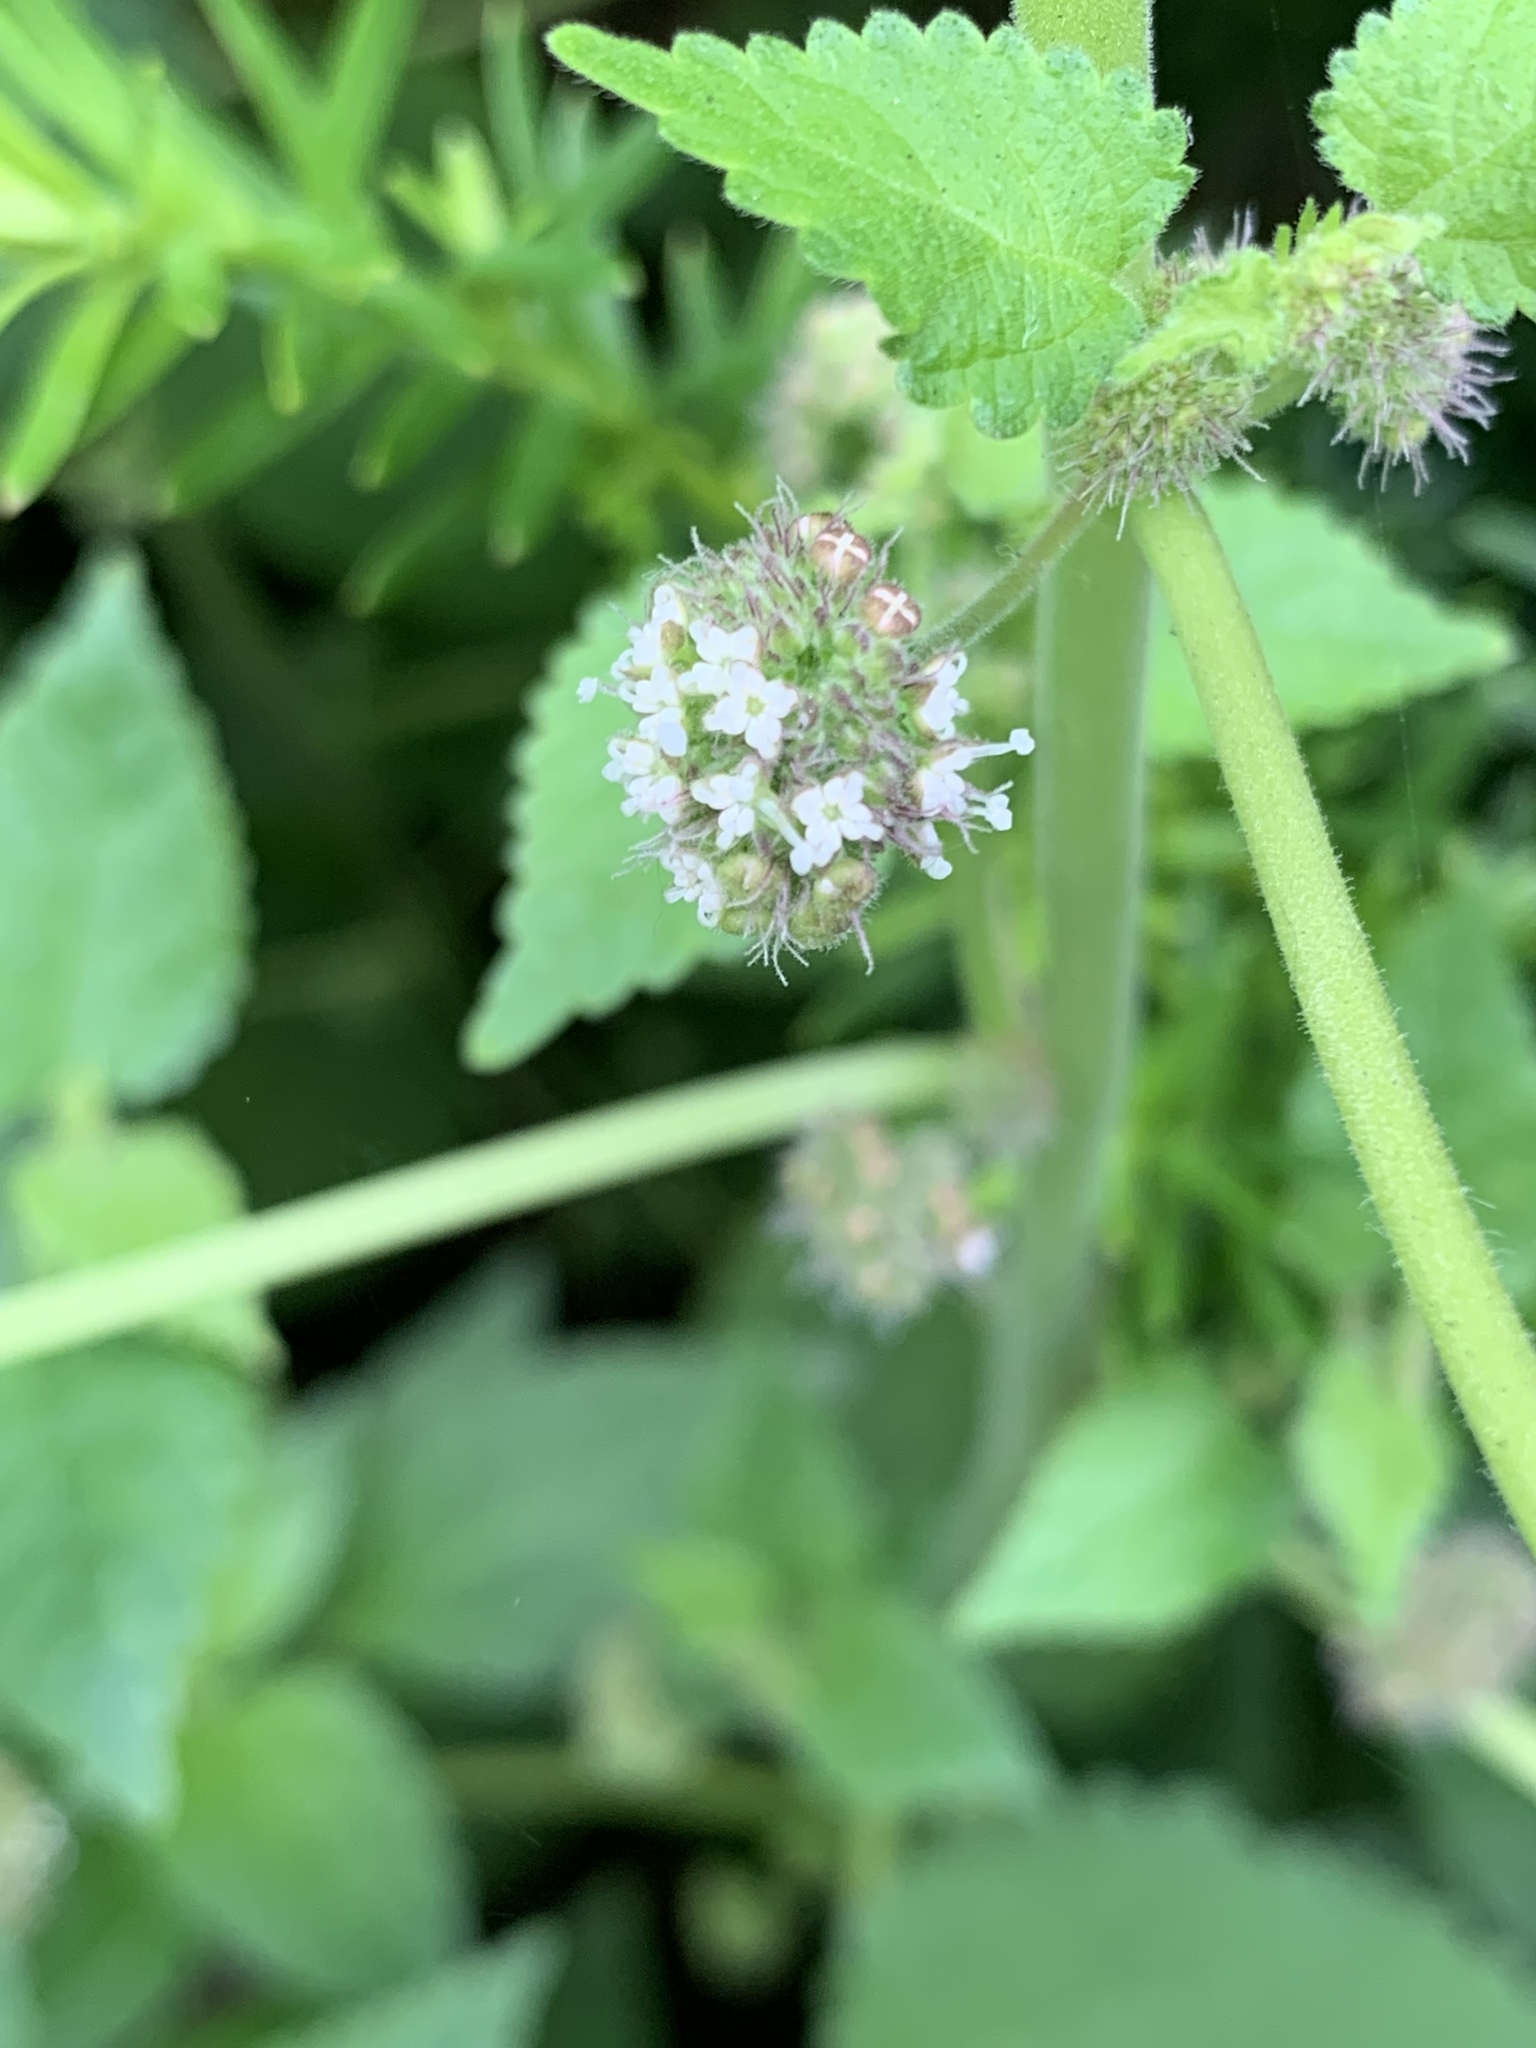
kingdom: Plantae
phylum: Tracheophyta
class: Magnoliopsida
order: Rosales
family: Moraceae
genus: Fatoua
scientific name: Fatoua villosa
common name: Hairy crabweed
